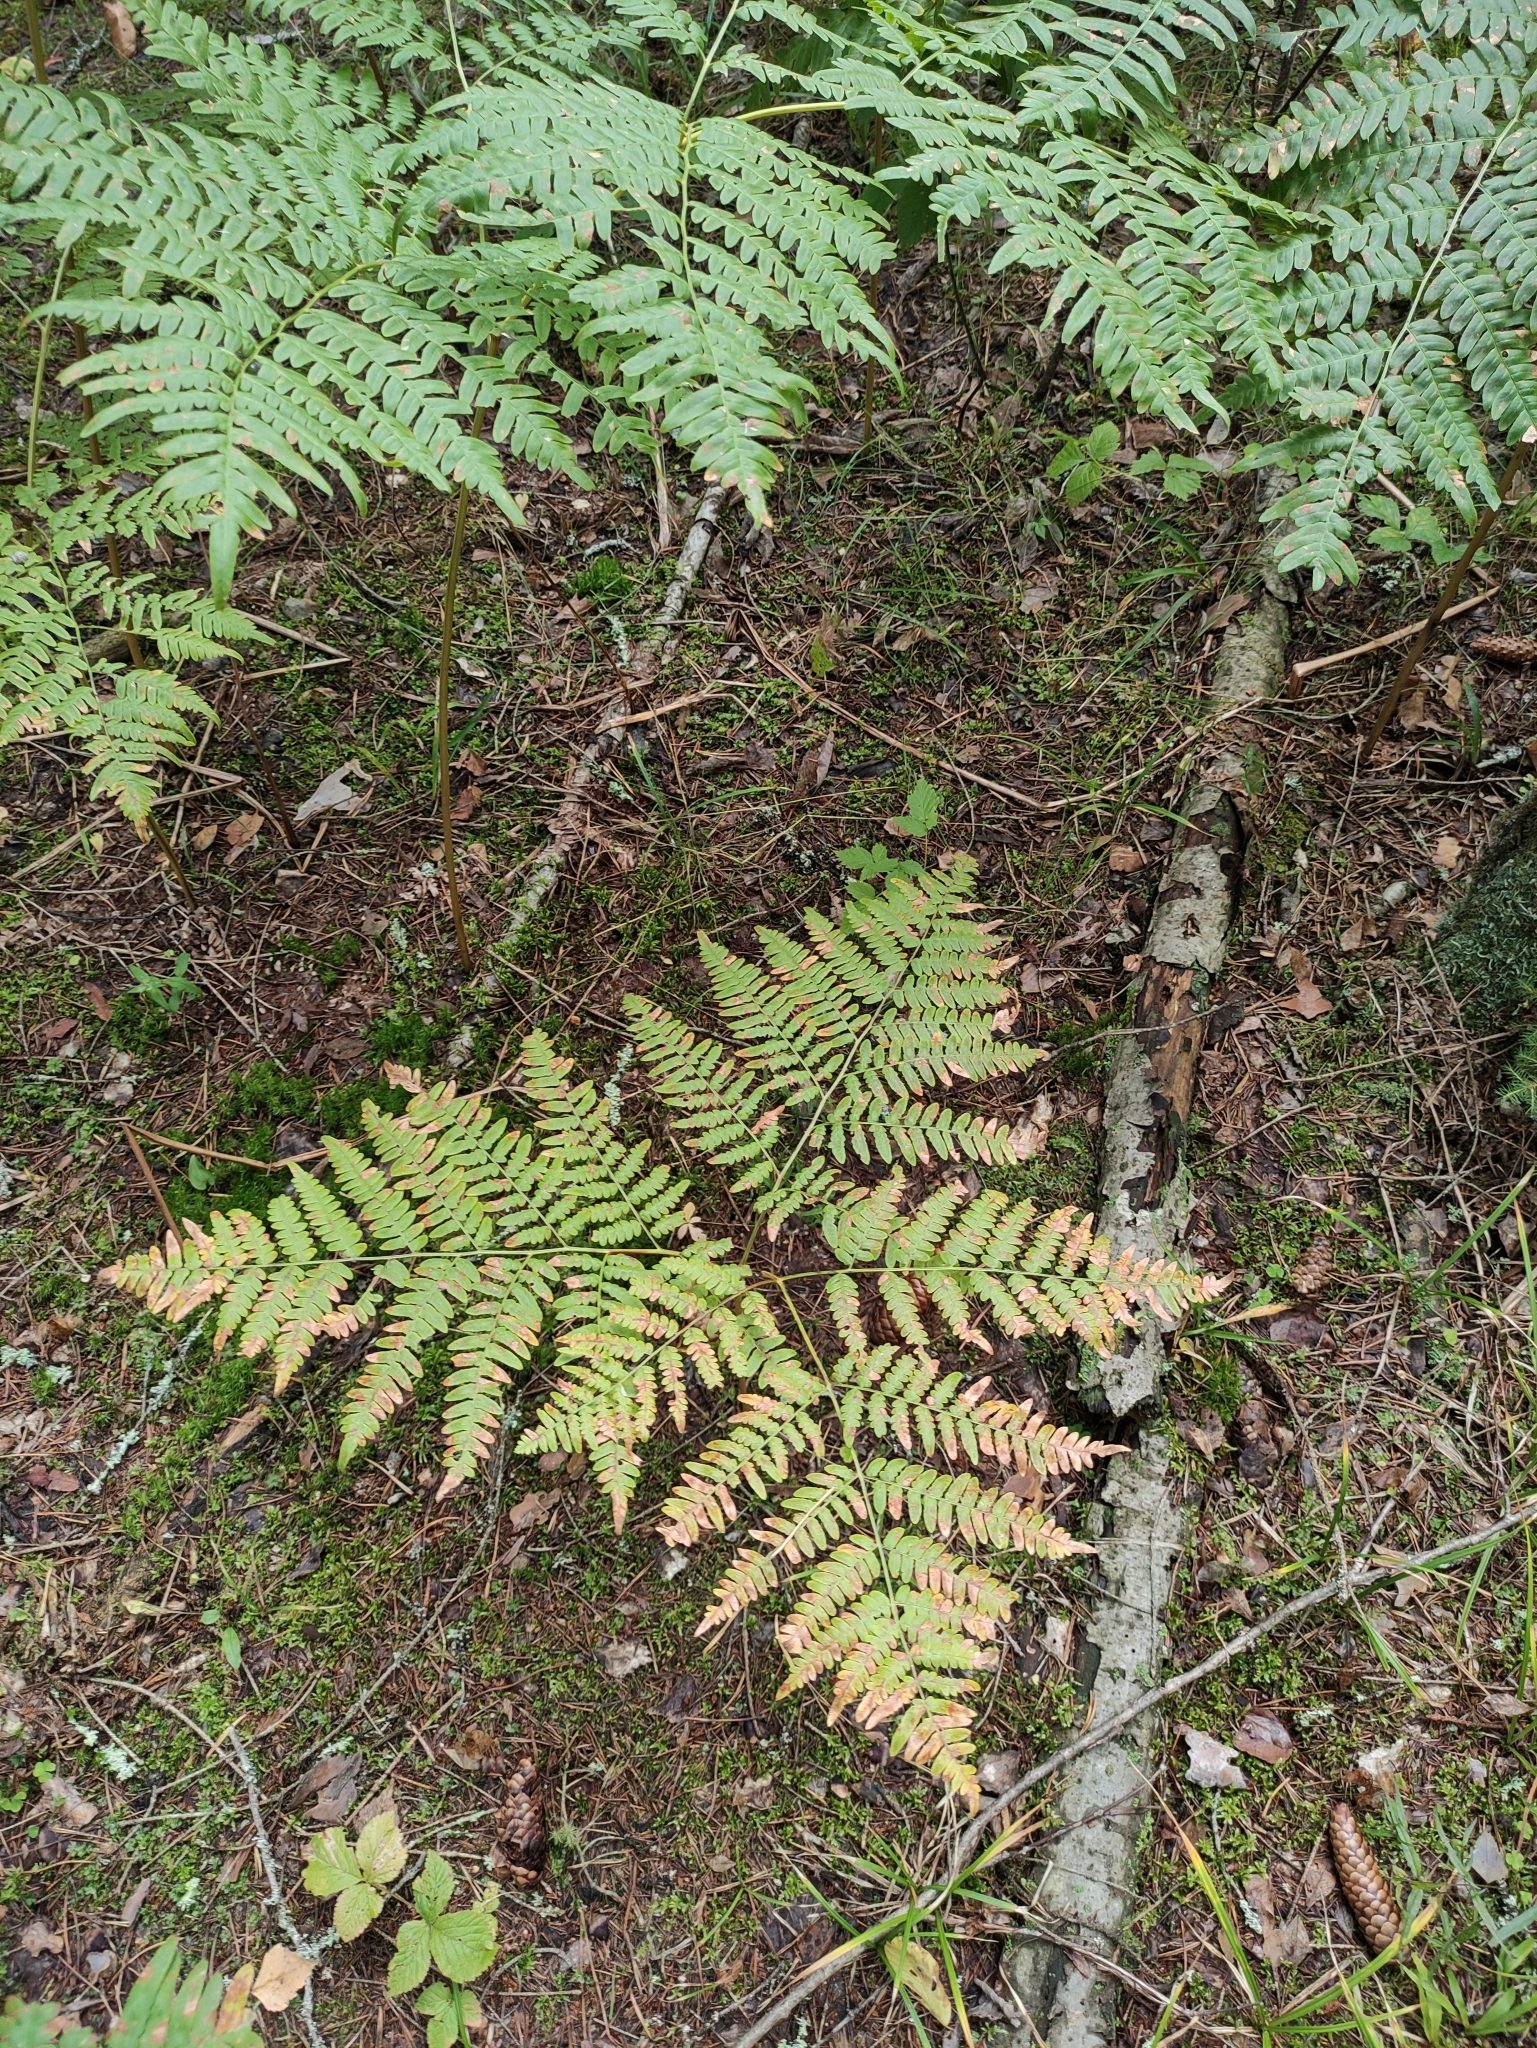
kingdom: Plantae
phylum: Tracheophyta
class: Polypodiopsida
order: Polypodiales
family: Dennstaedtiaceae
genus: Pteridium
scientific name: Pteridium aquilinum
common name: Bracken
